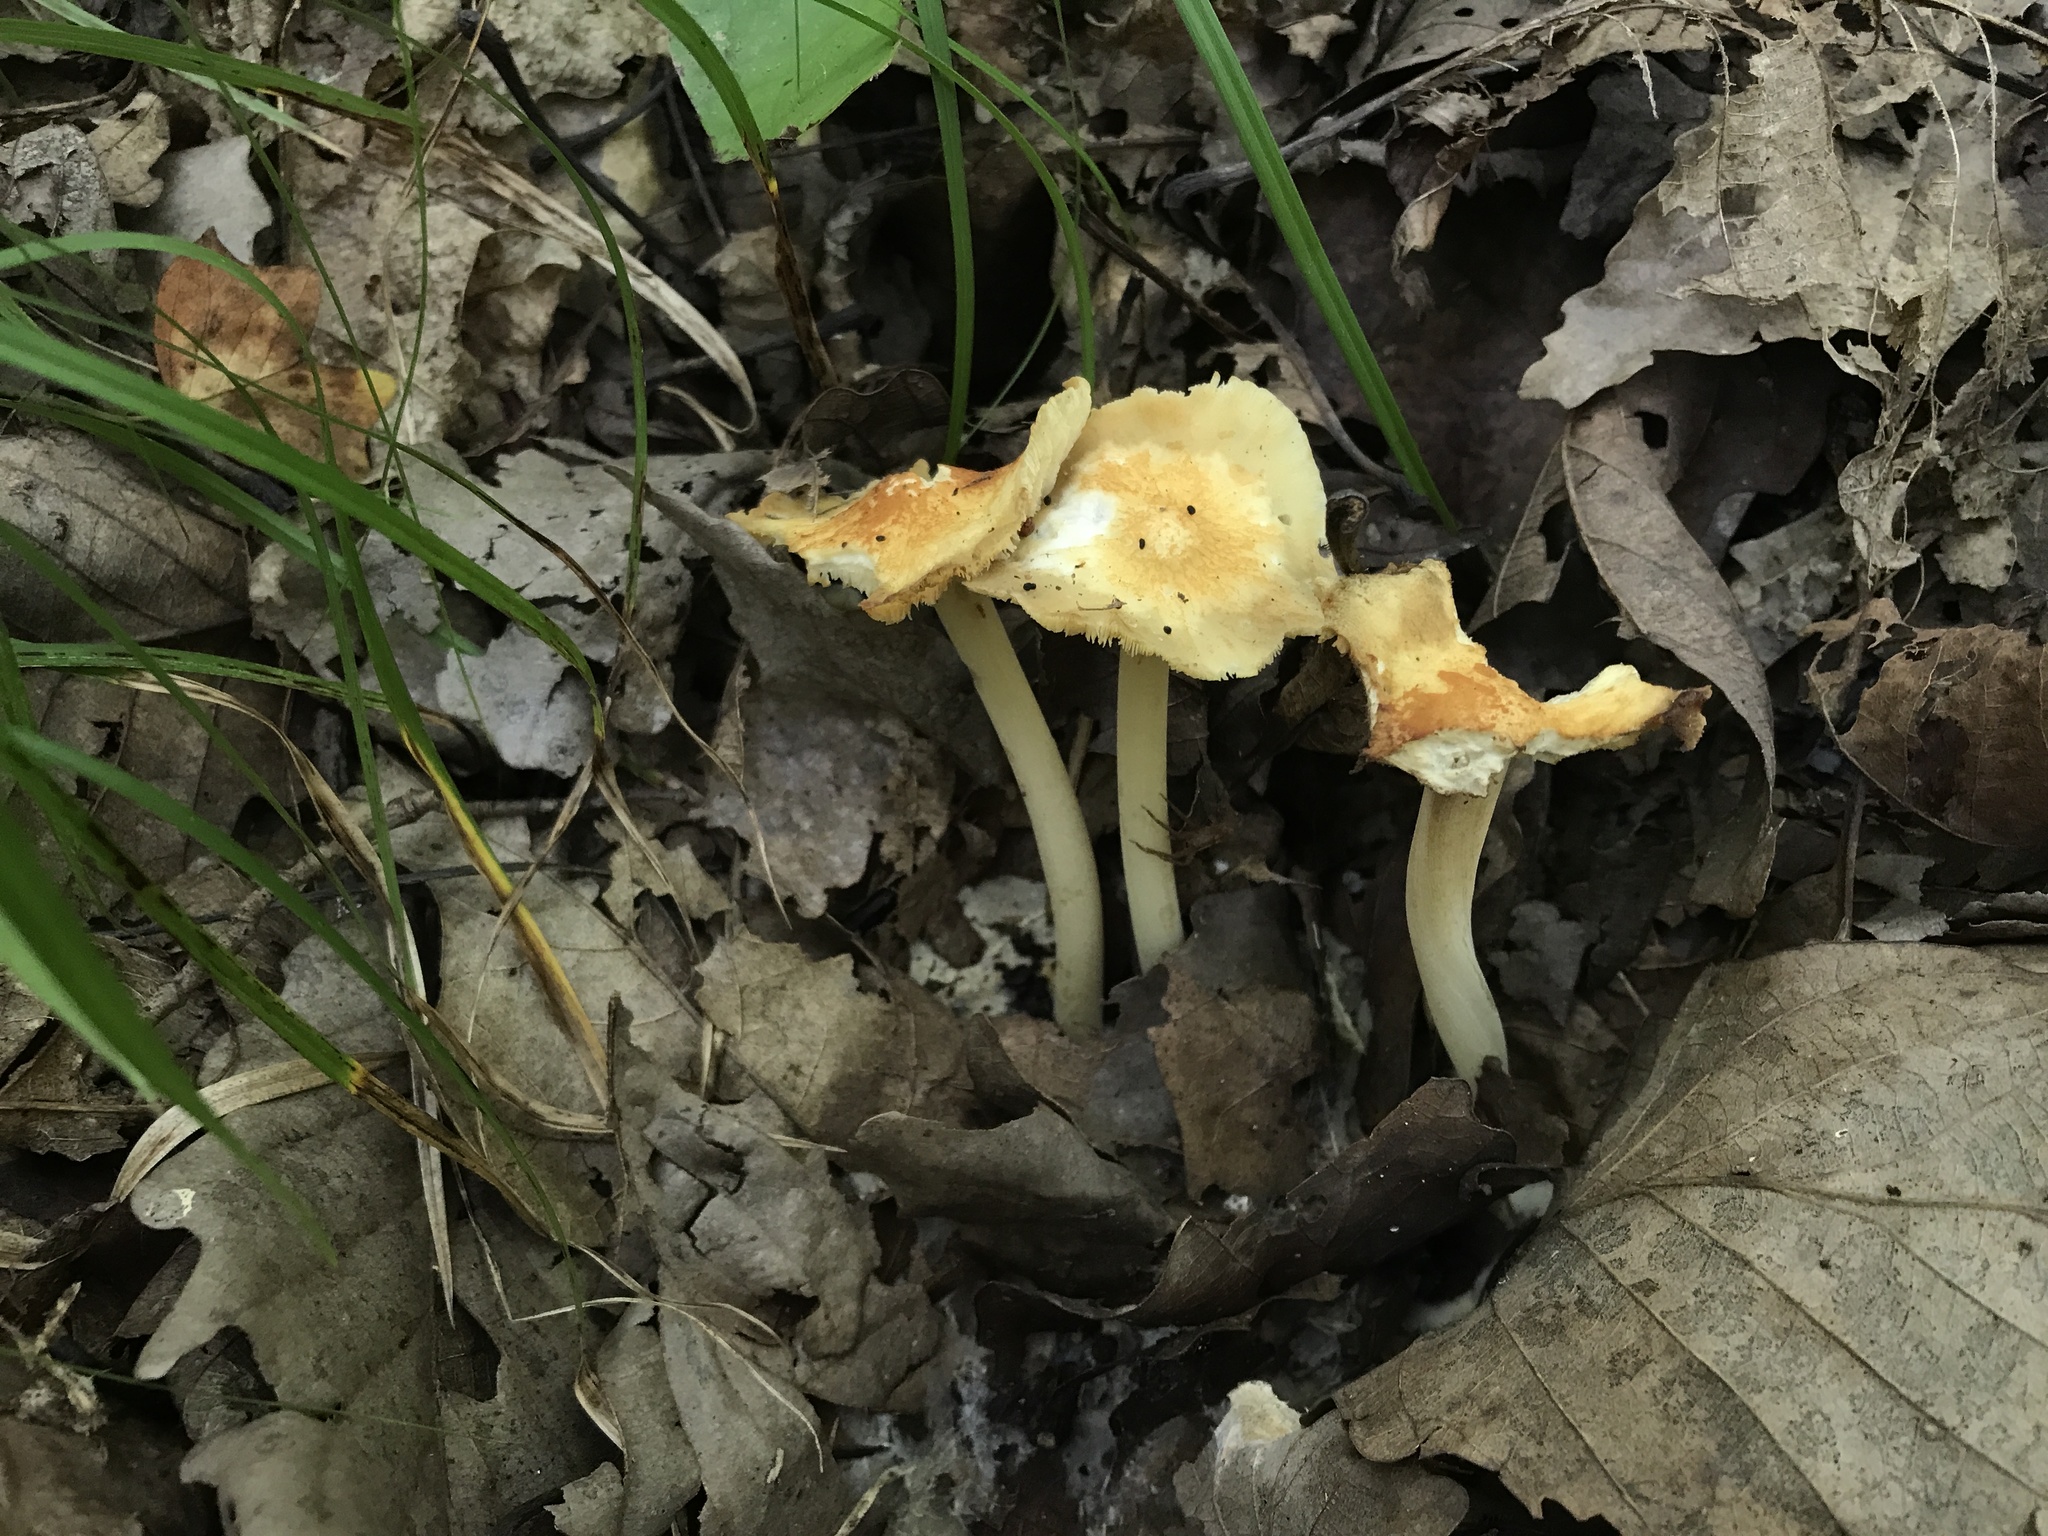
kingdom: Fungi
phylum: Basidiomycota
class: Agaricomycetes
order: Agaricales
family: Marasmiaceae
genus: Marasmius
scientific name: Marasmius strictipes
